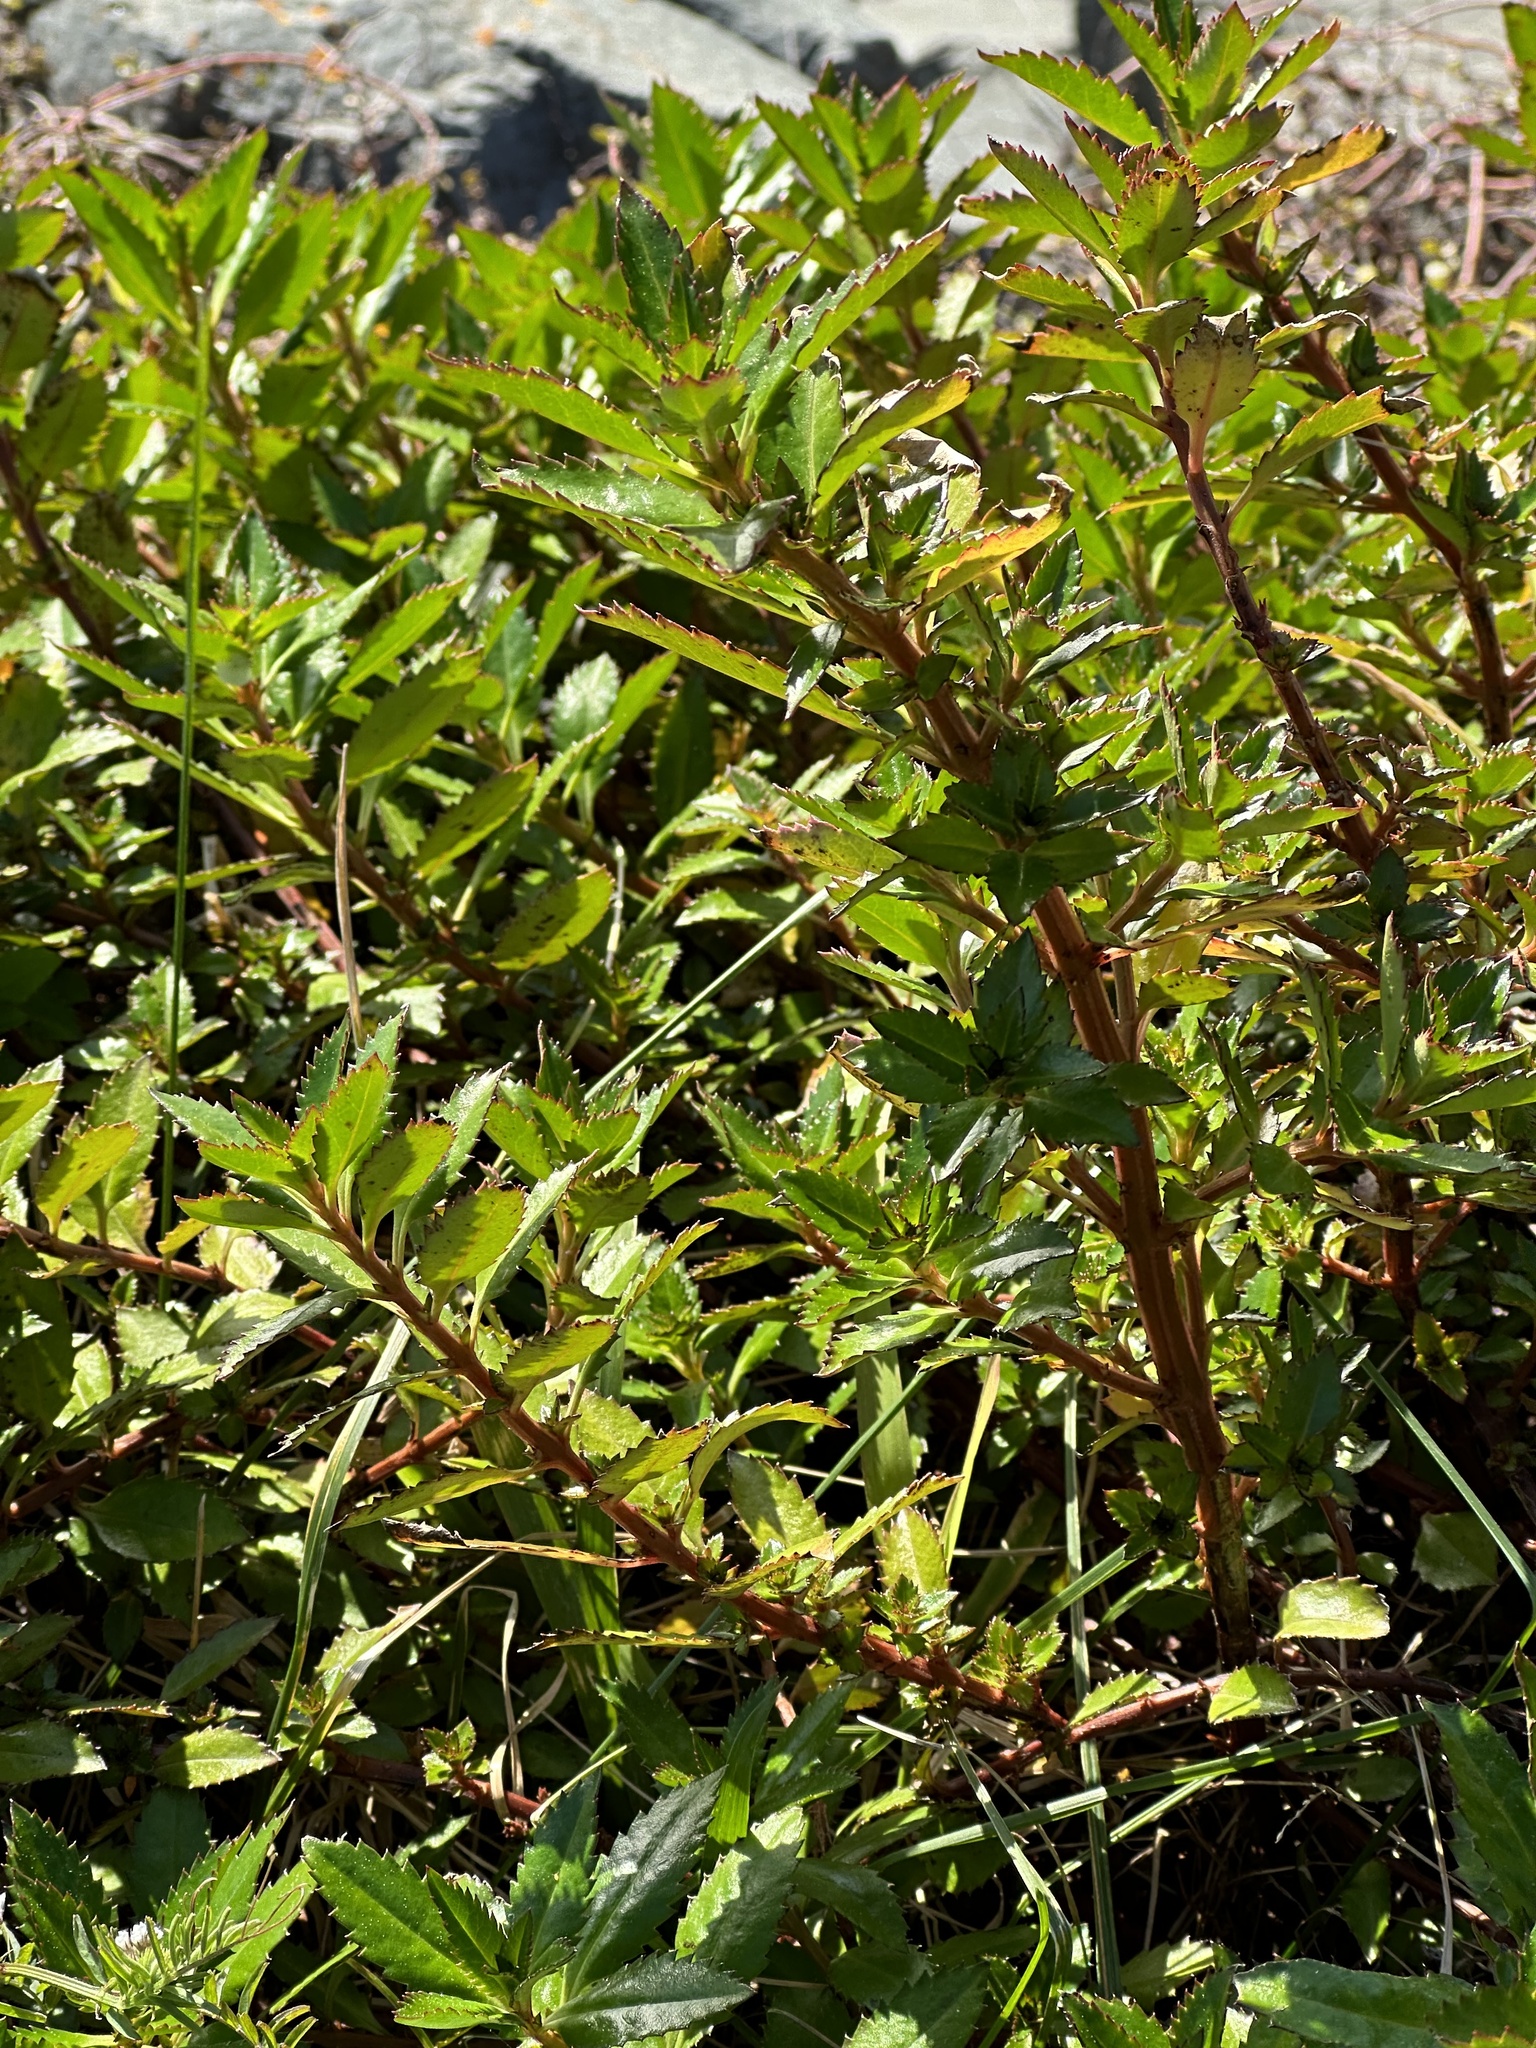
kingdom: Plantae
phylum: Tracheophyta
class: Magnoliopsida
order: Saxifragales
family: Haloragaceae
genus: Haloragis
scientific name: Haloragis erecta
